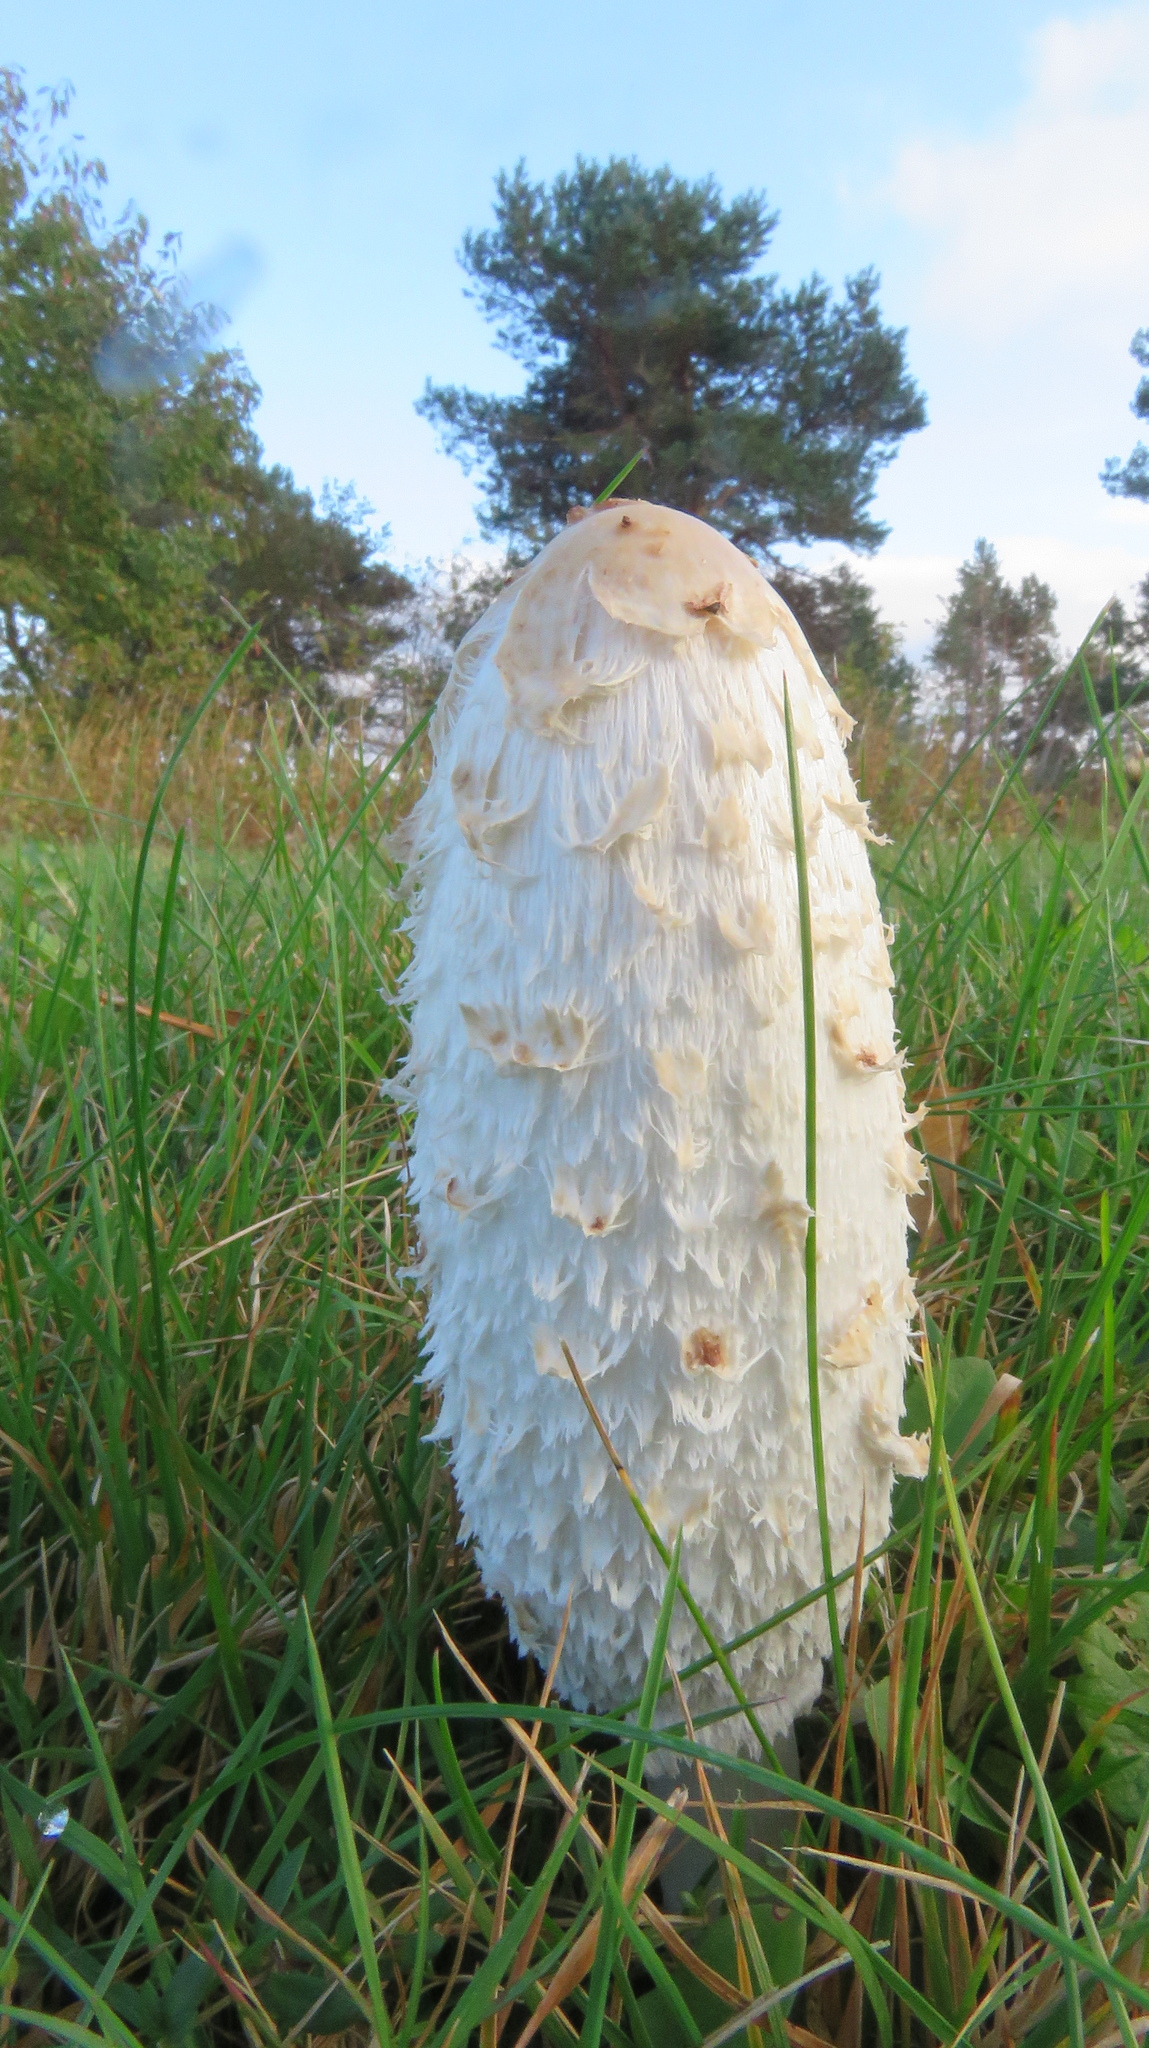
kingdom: Fungi
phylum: Basidiomycota
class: Agaricomycetes
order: Agaricales
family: Agaricaceae
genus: Coprinus
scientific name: Coprinus comatus
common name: Lawyer's wig
